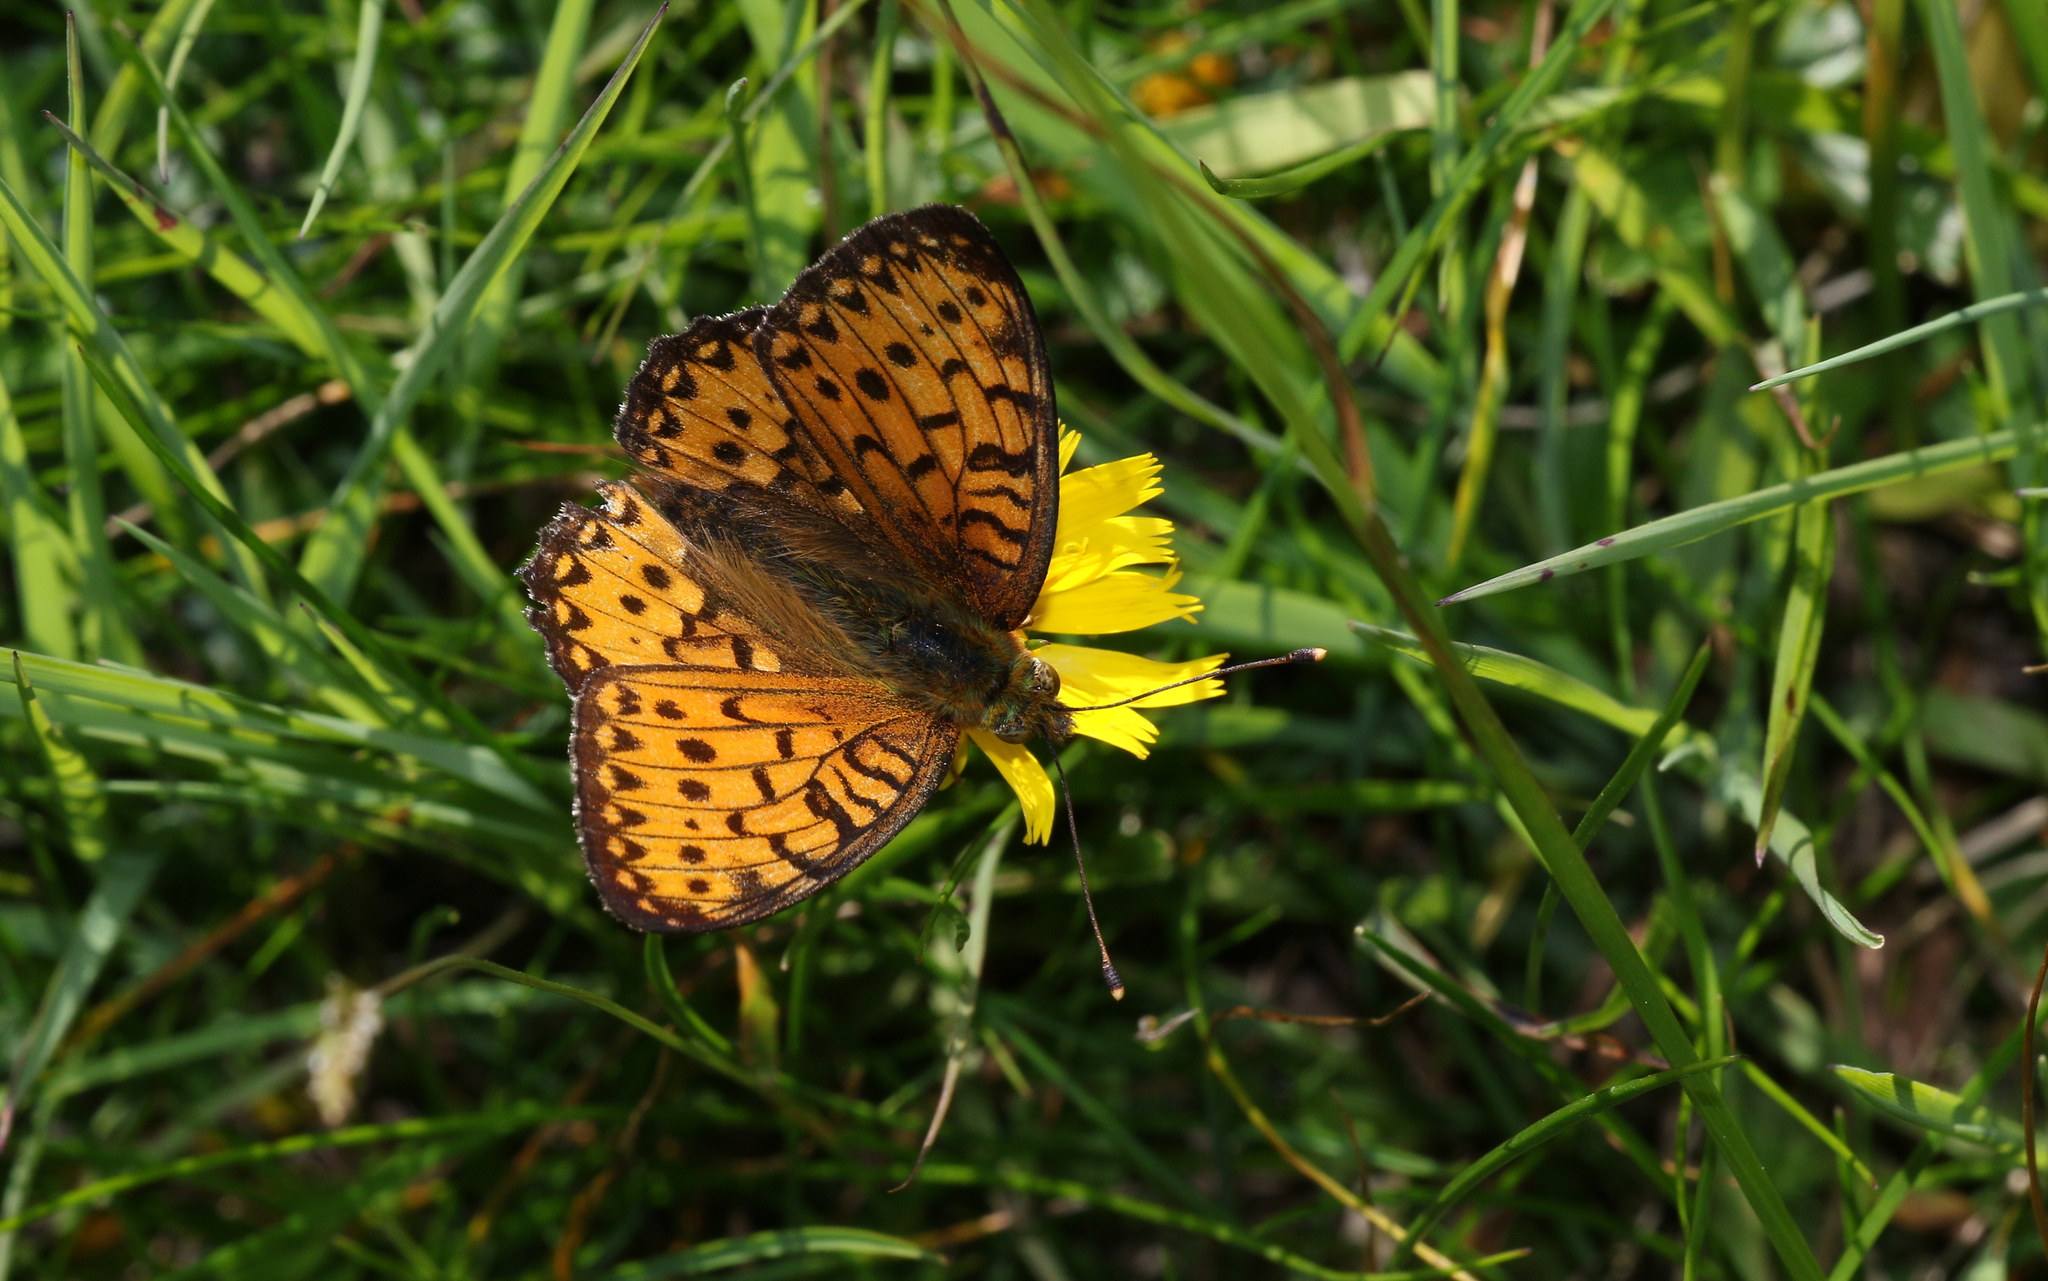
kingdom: Animalia
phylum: Arthropoda
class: Insecta
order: Lepidoptera
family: Nymphalidae
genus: Speyeria
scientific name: Speyeria aglaja
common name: Dark green fritillary
